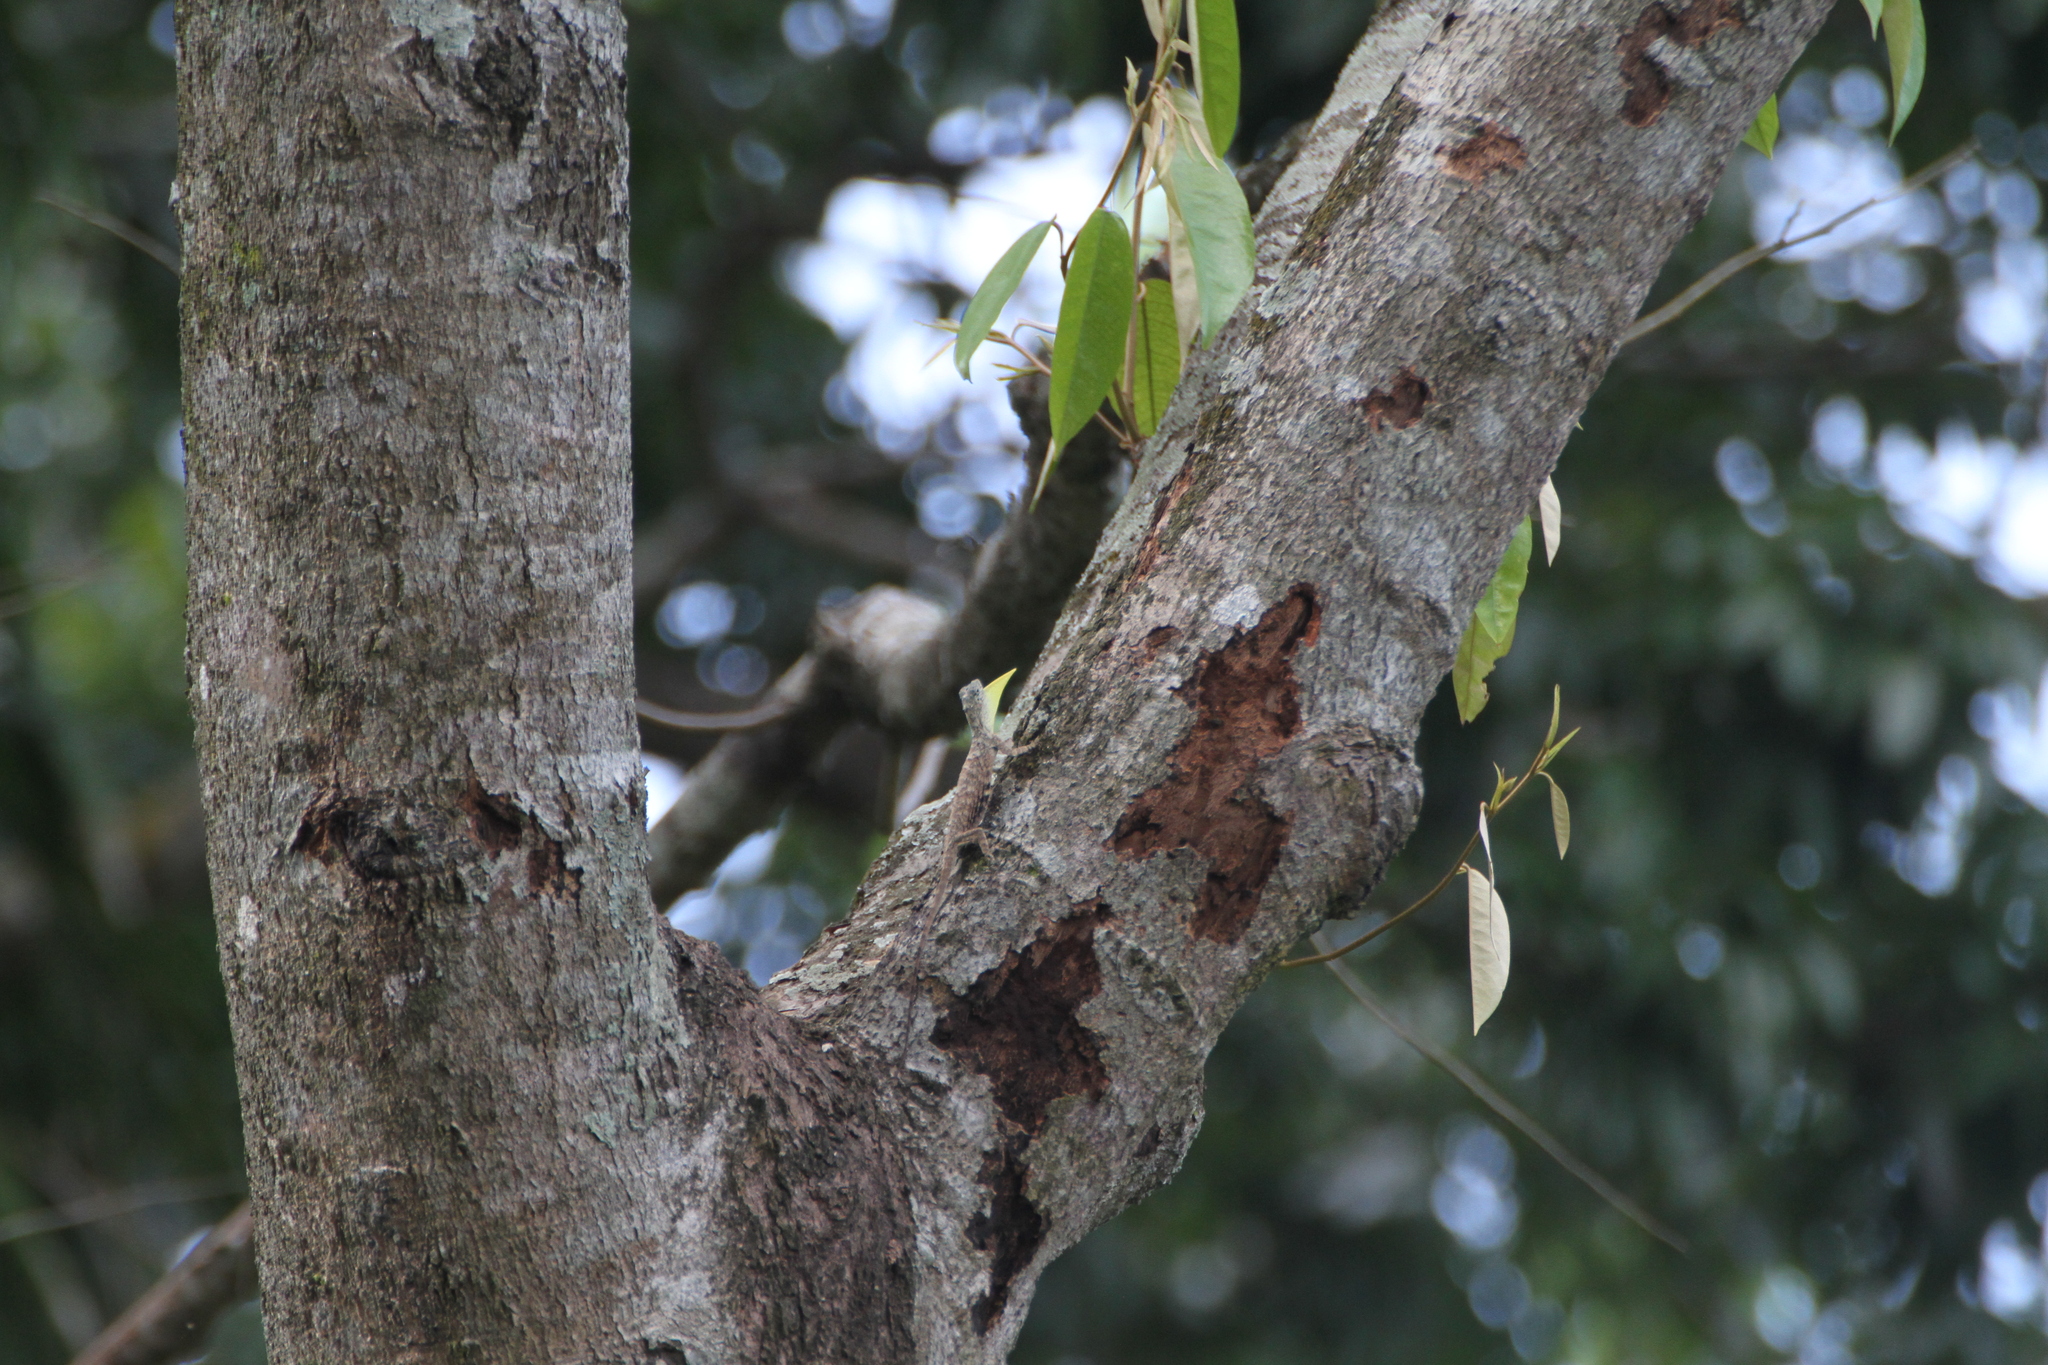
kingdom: Animalia
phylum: Chordata
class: Squamata
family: Agamidae
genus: Draco
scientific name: Draco sumatranus
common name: Common gliding lizard
